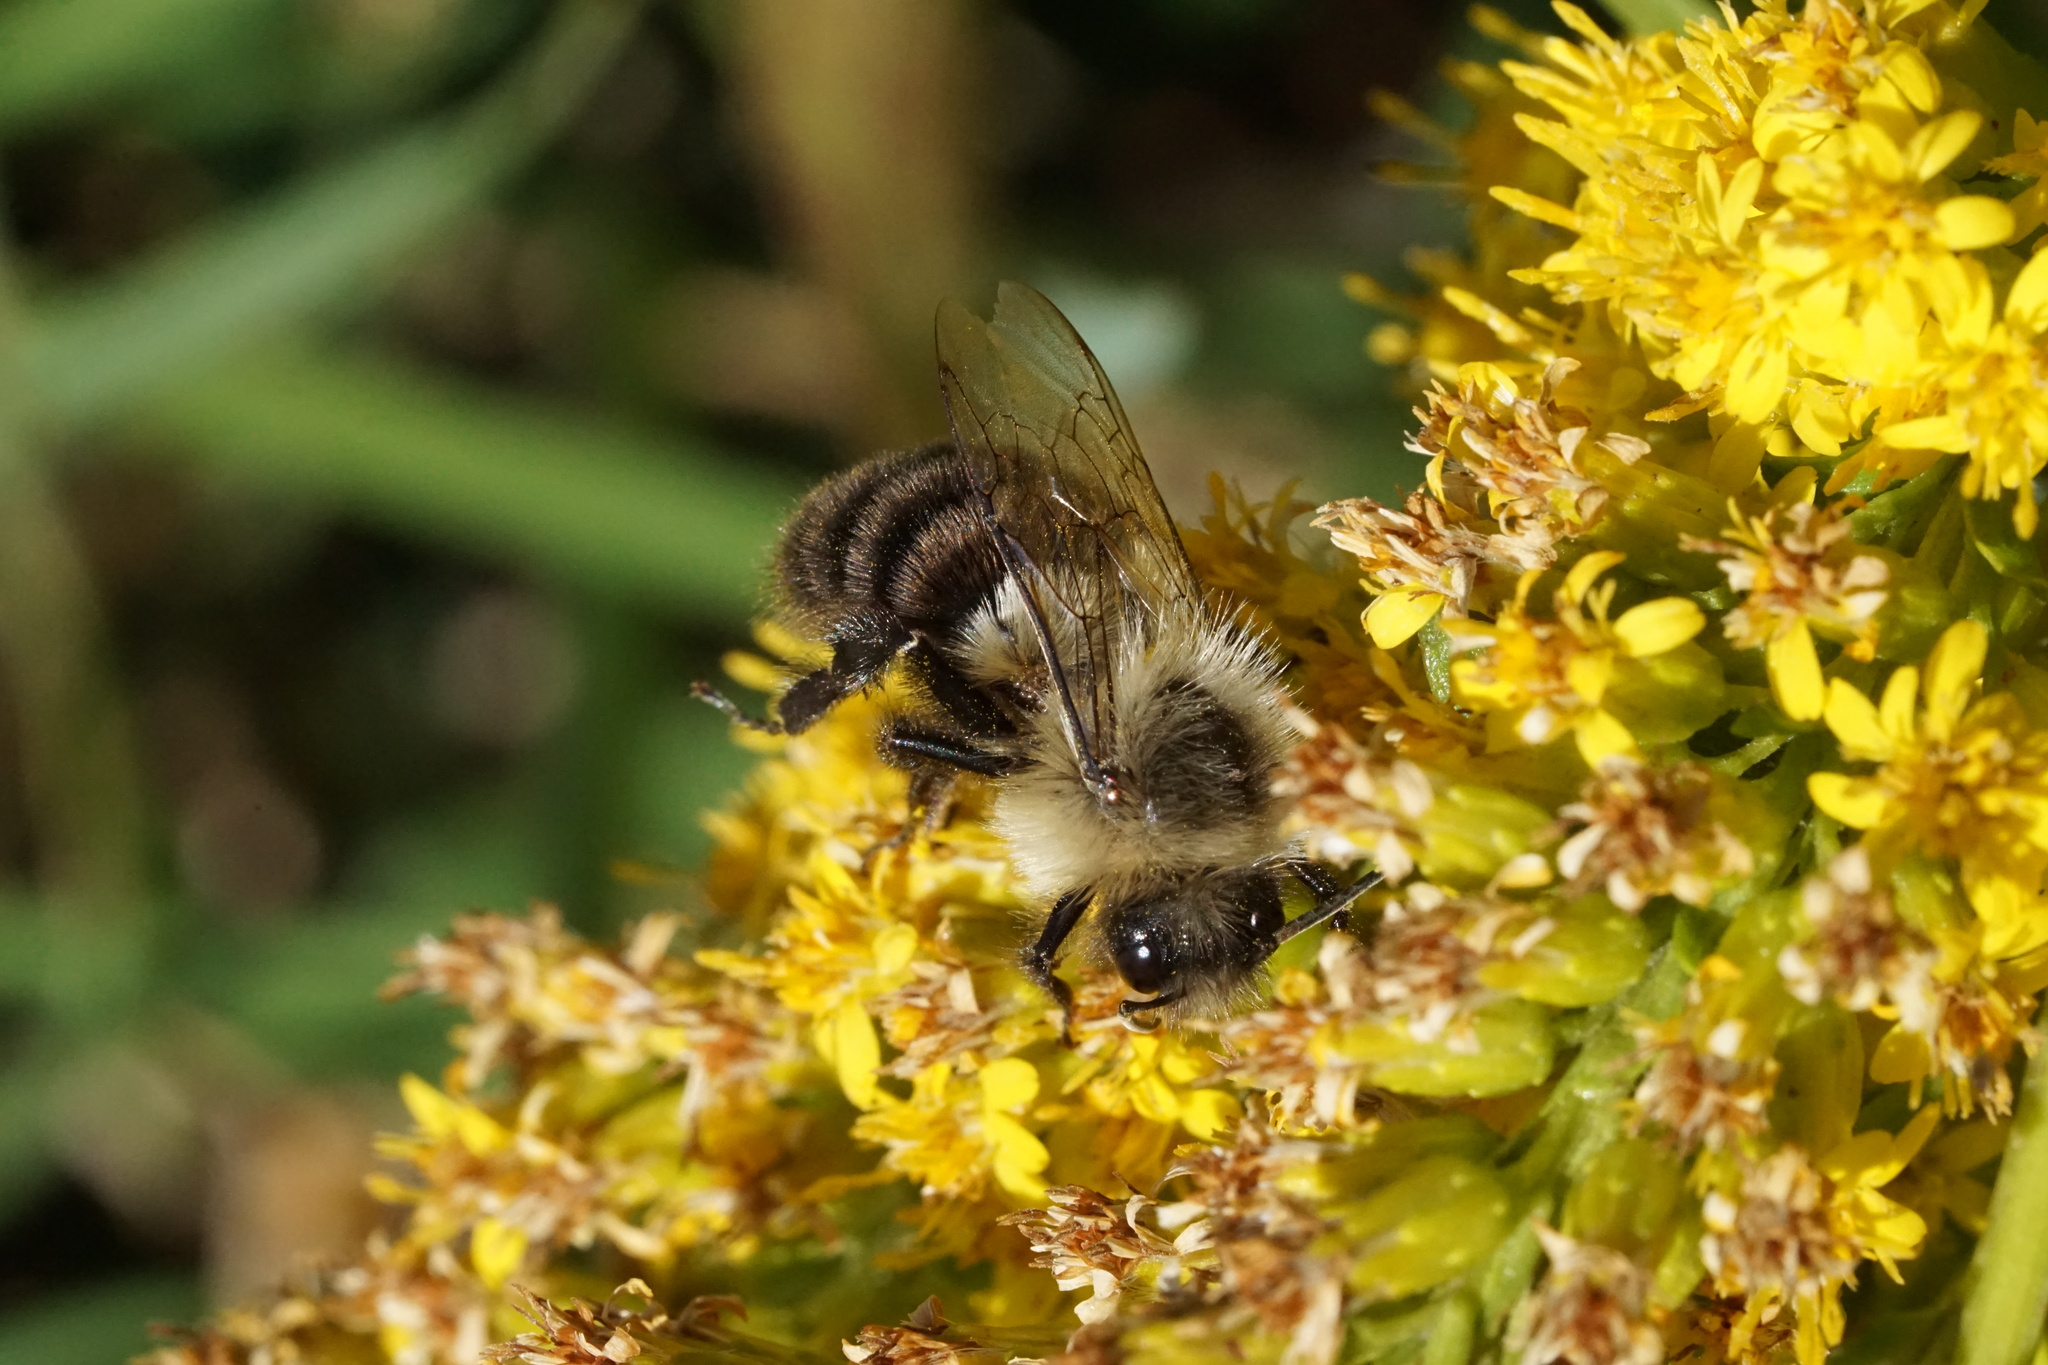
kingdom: Animalia
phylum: Arthropoda
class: Insecta
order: Hymenoptera
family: Apidae
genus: Bombus
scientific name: Bombus impatiens
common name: Common eastern bumble bee
